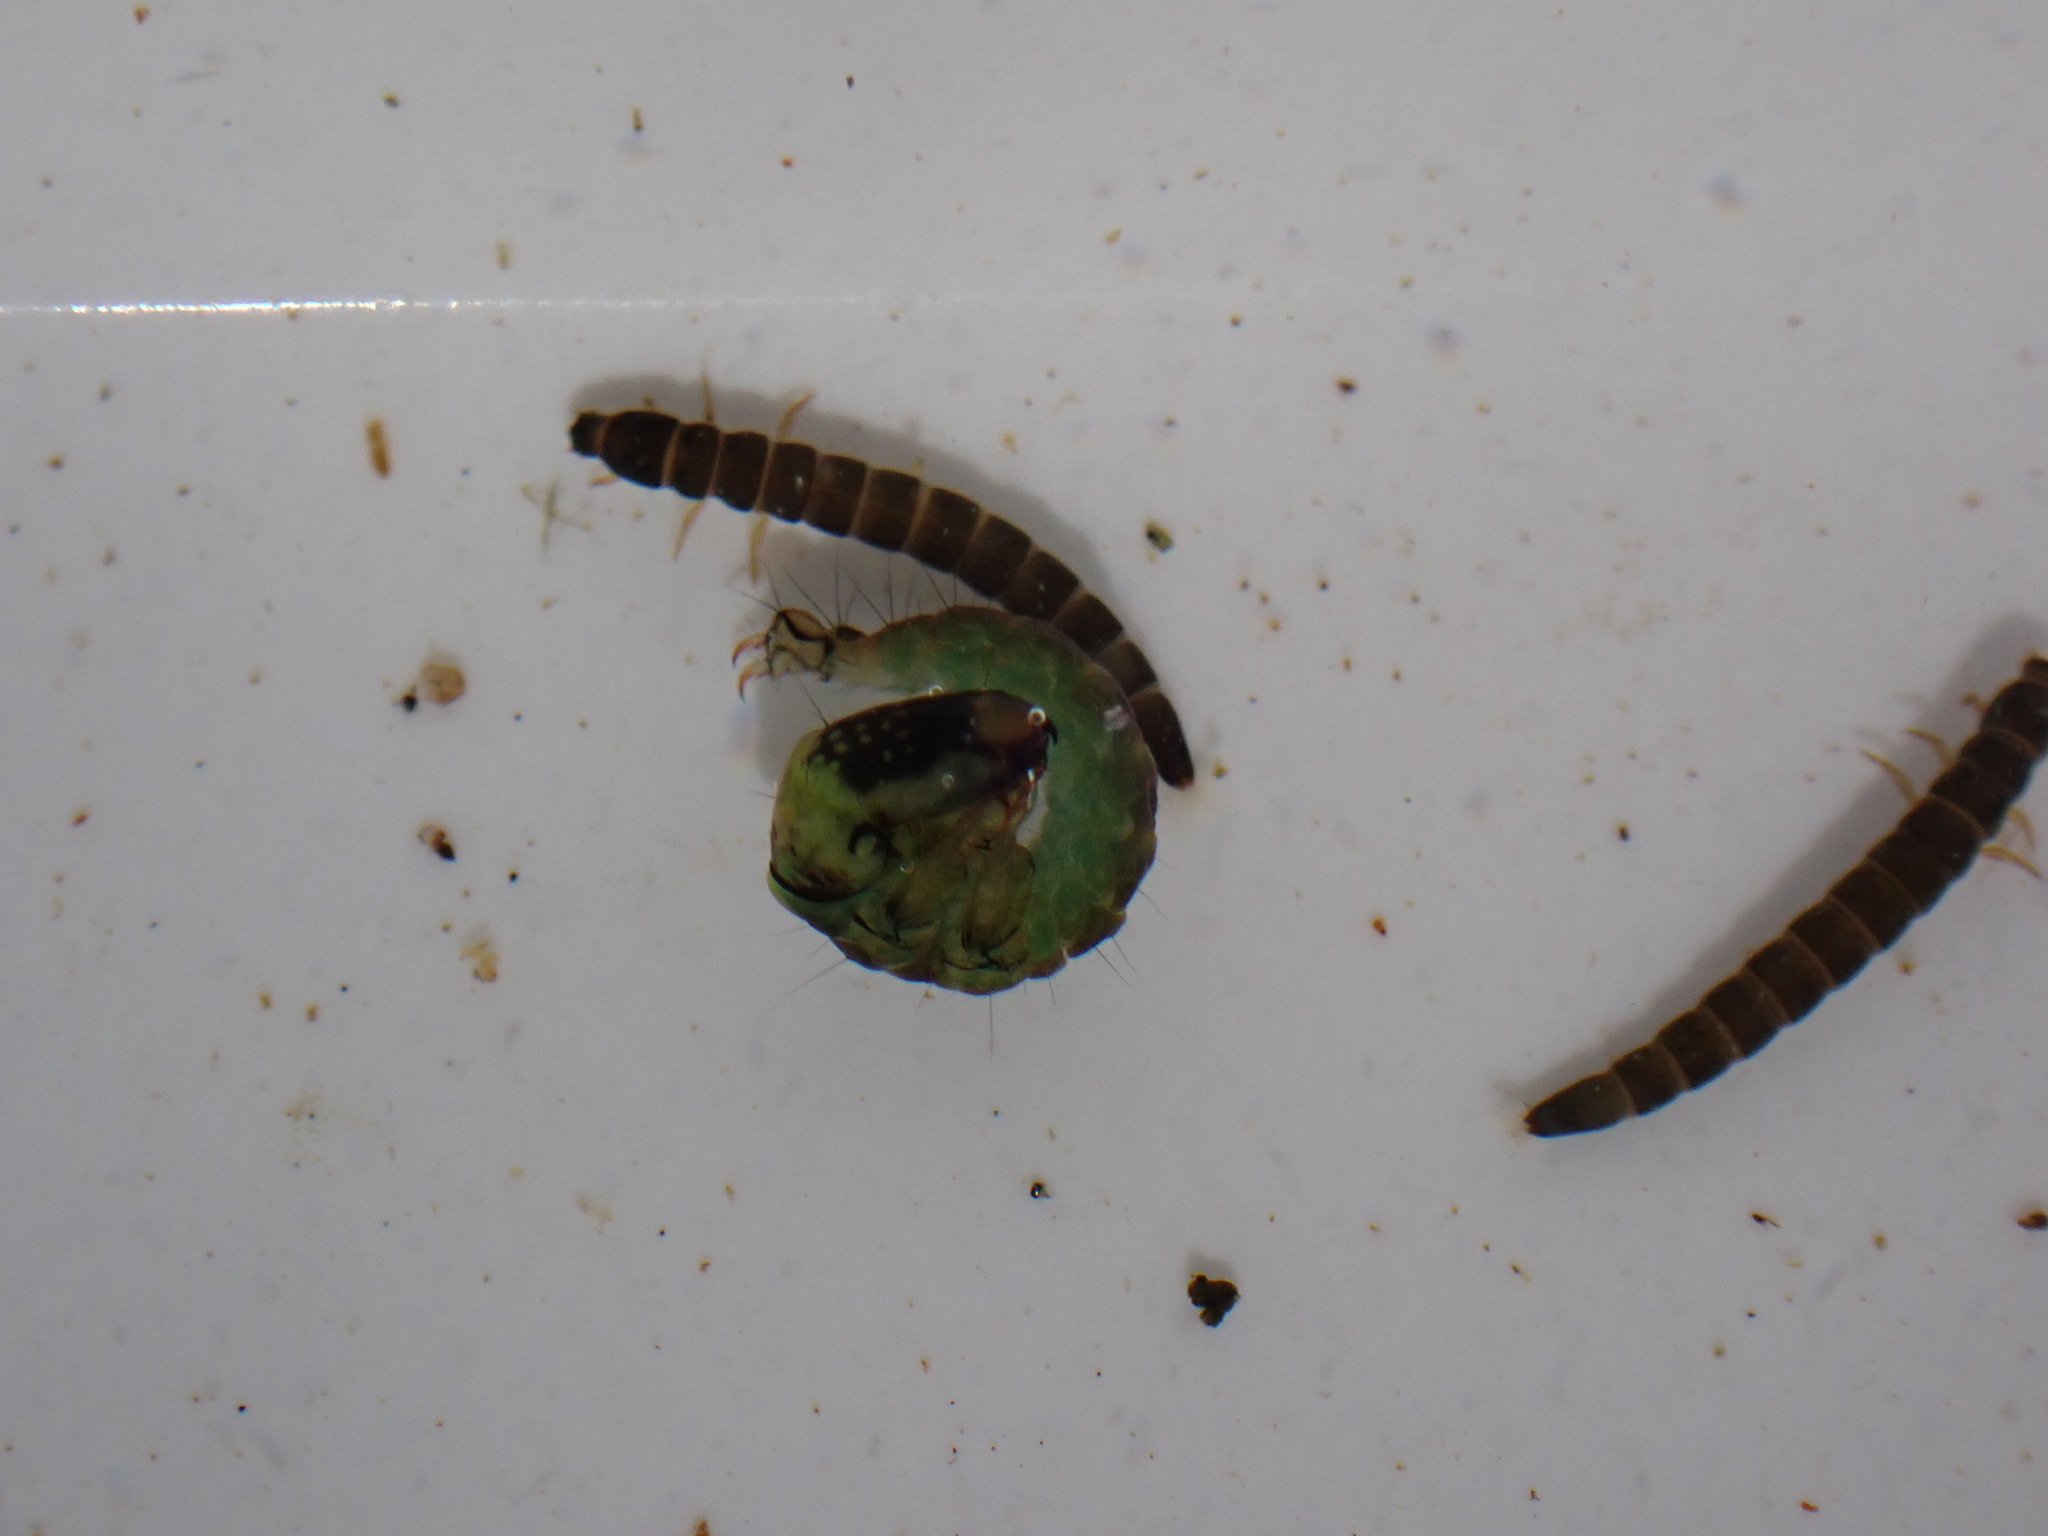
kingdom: Animalia
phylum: Arthropoda
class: Insecta
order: Trichoptera
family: Hydrobiosidae
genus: Costachorema
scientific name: Costachorema xanthopterum
